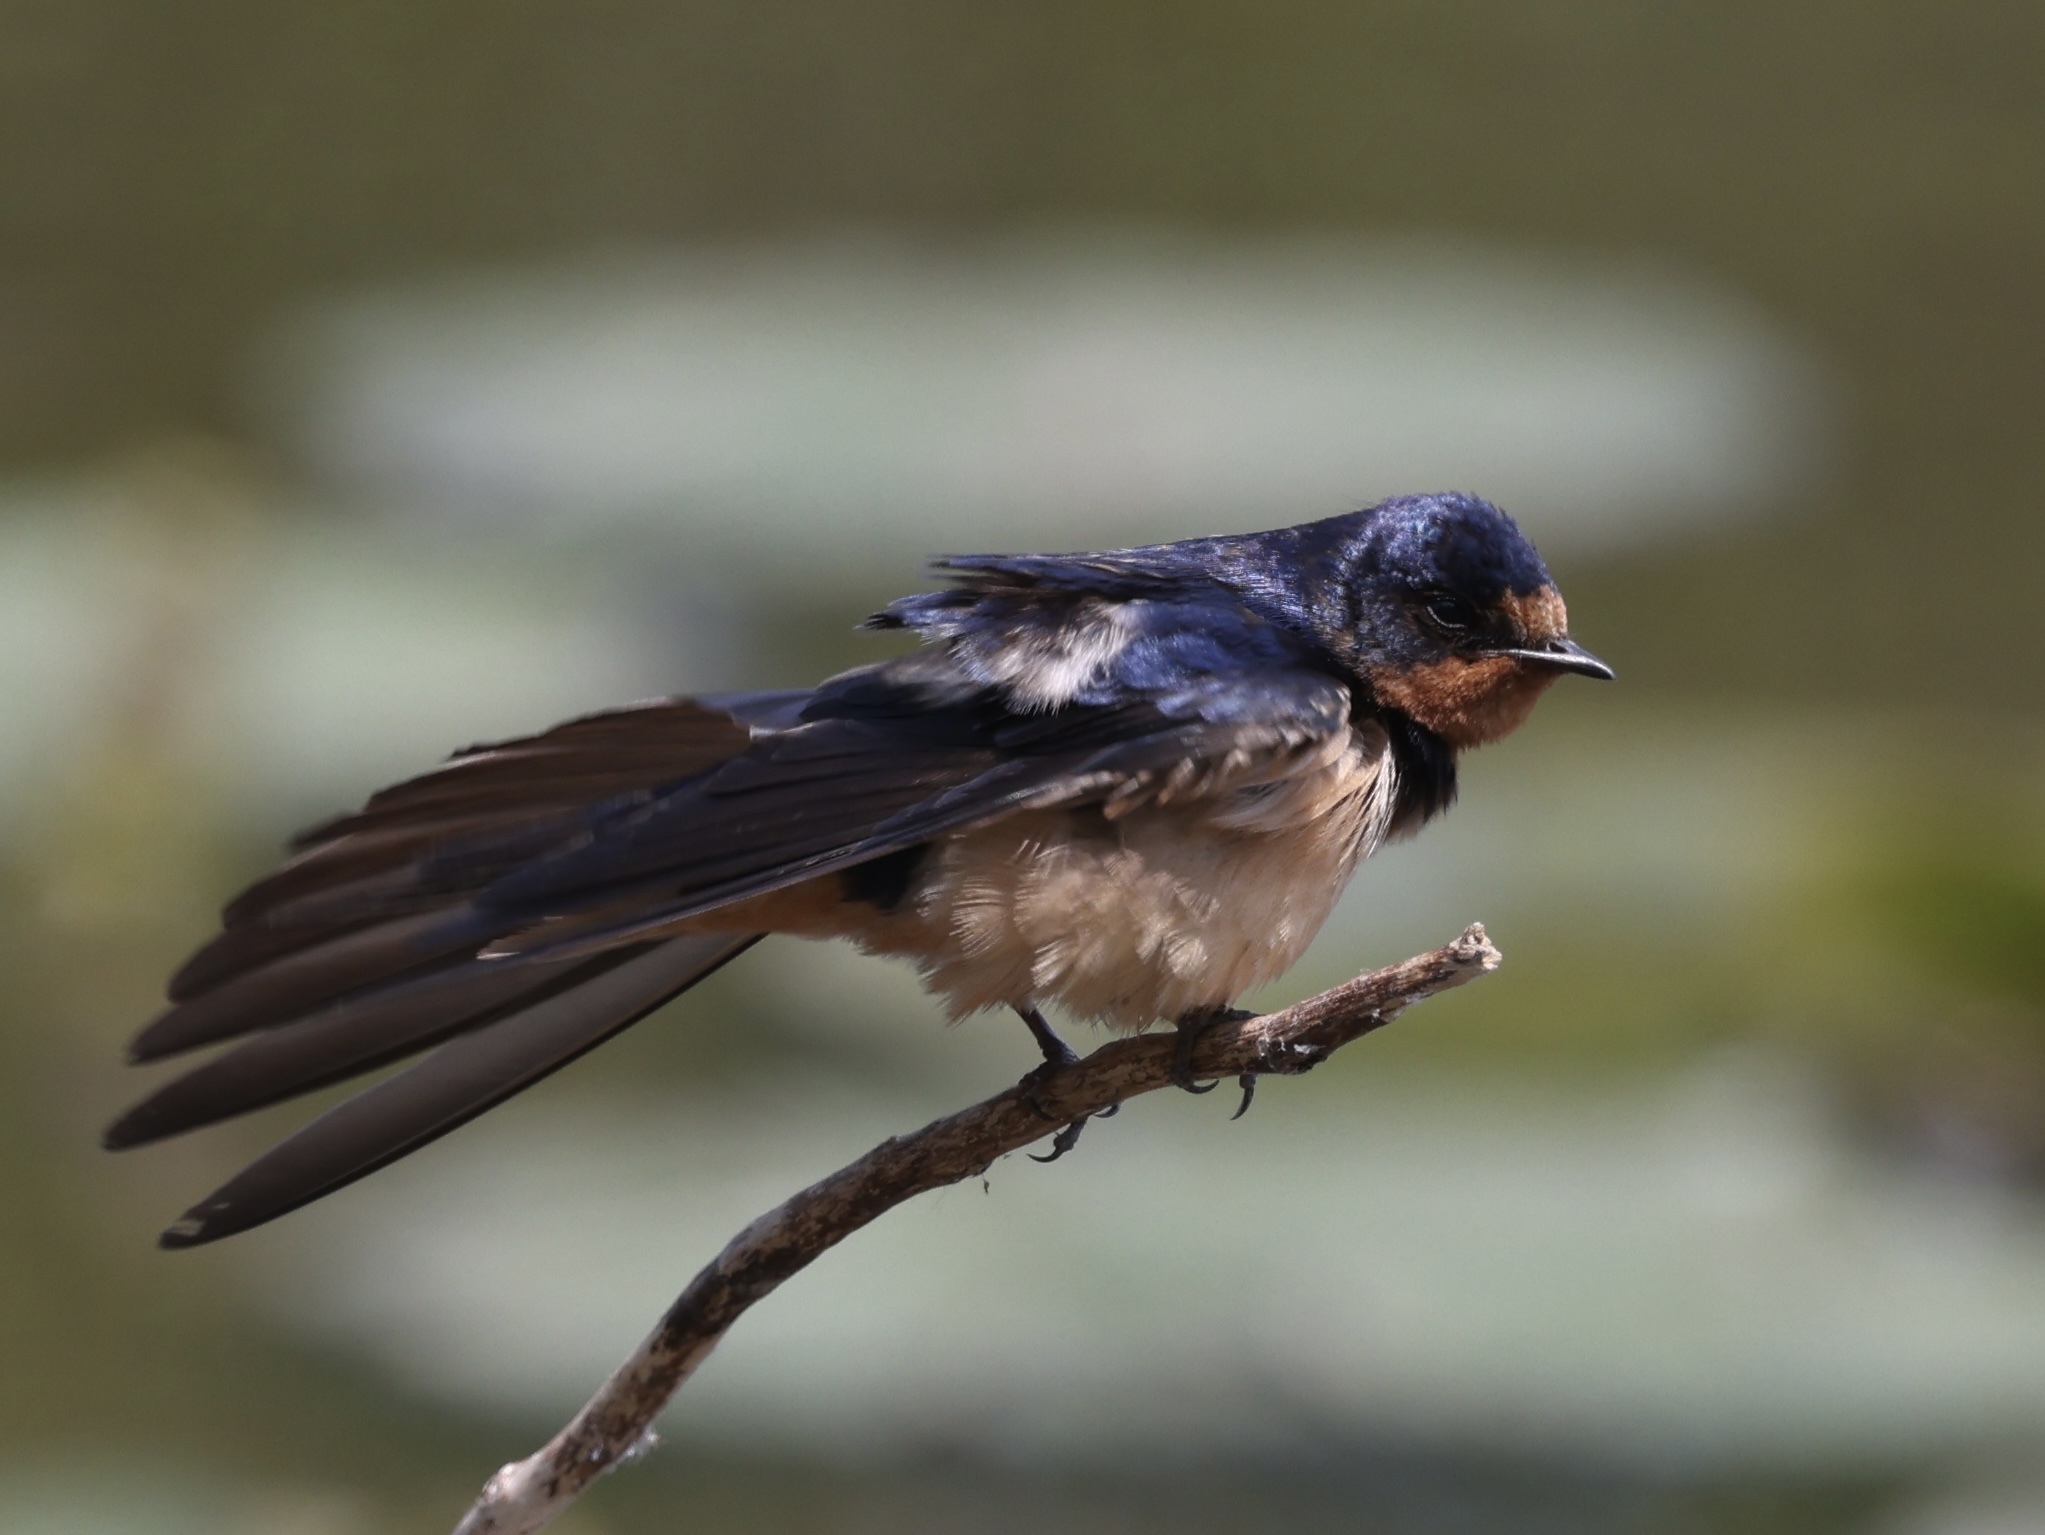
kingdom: Animalia
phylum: Chordata
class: Aves
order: Passeriformes
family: Hirundinidae
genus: Hirundo
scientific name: Hirundo rustica
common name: Barn swallow
